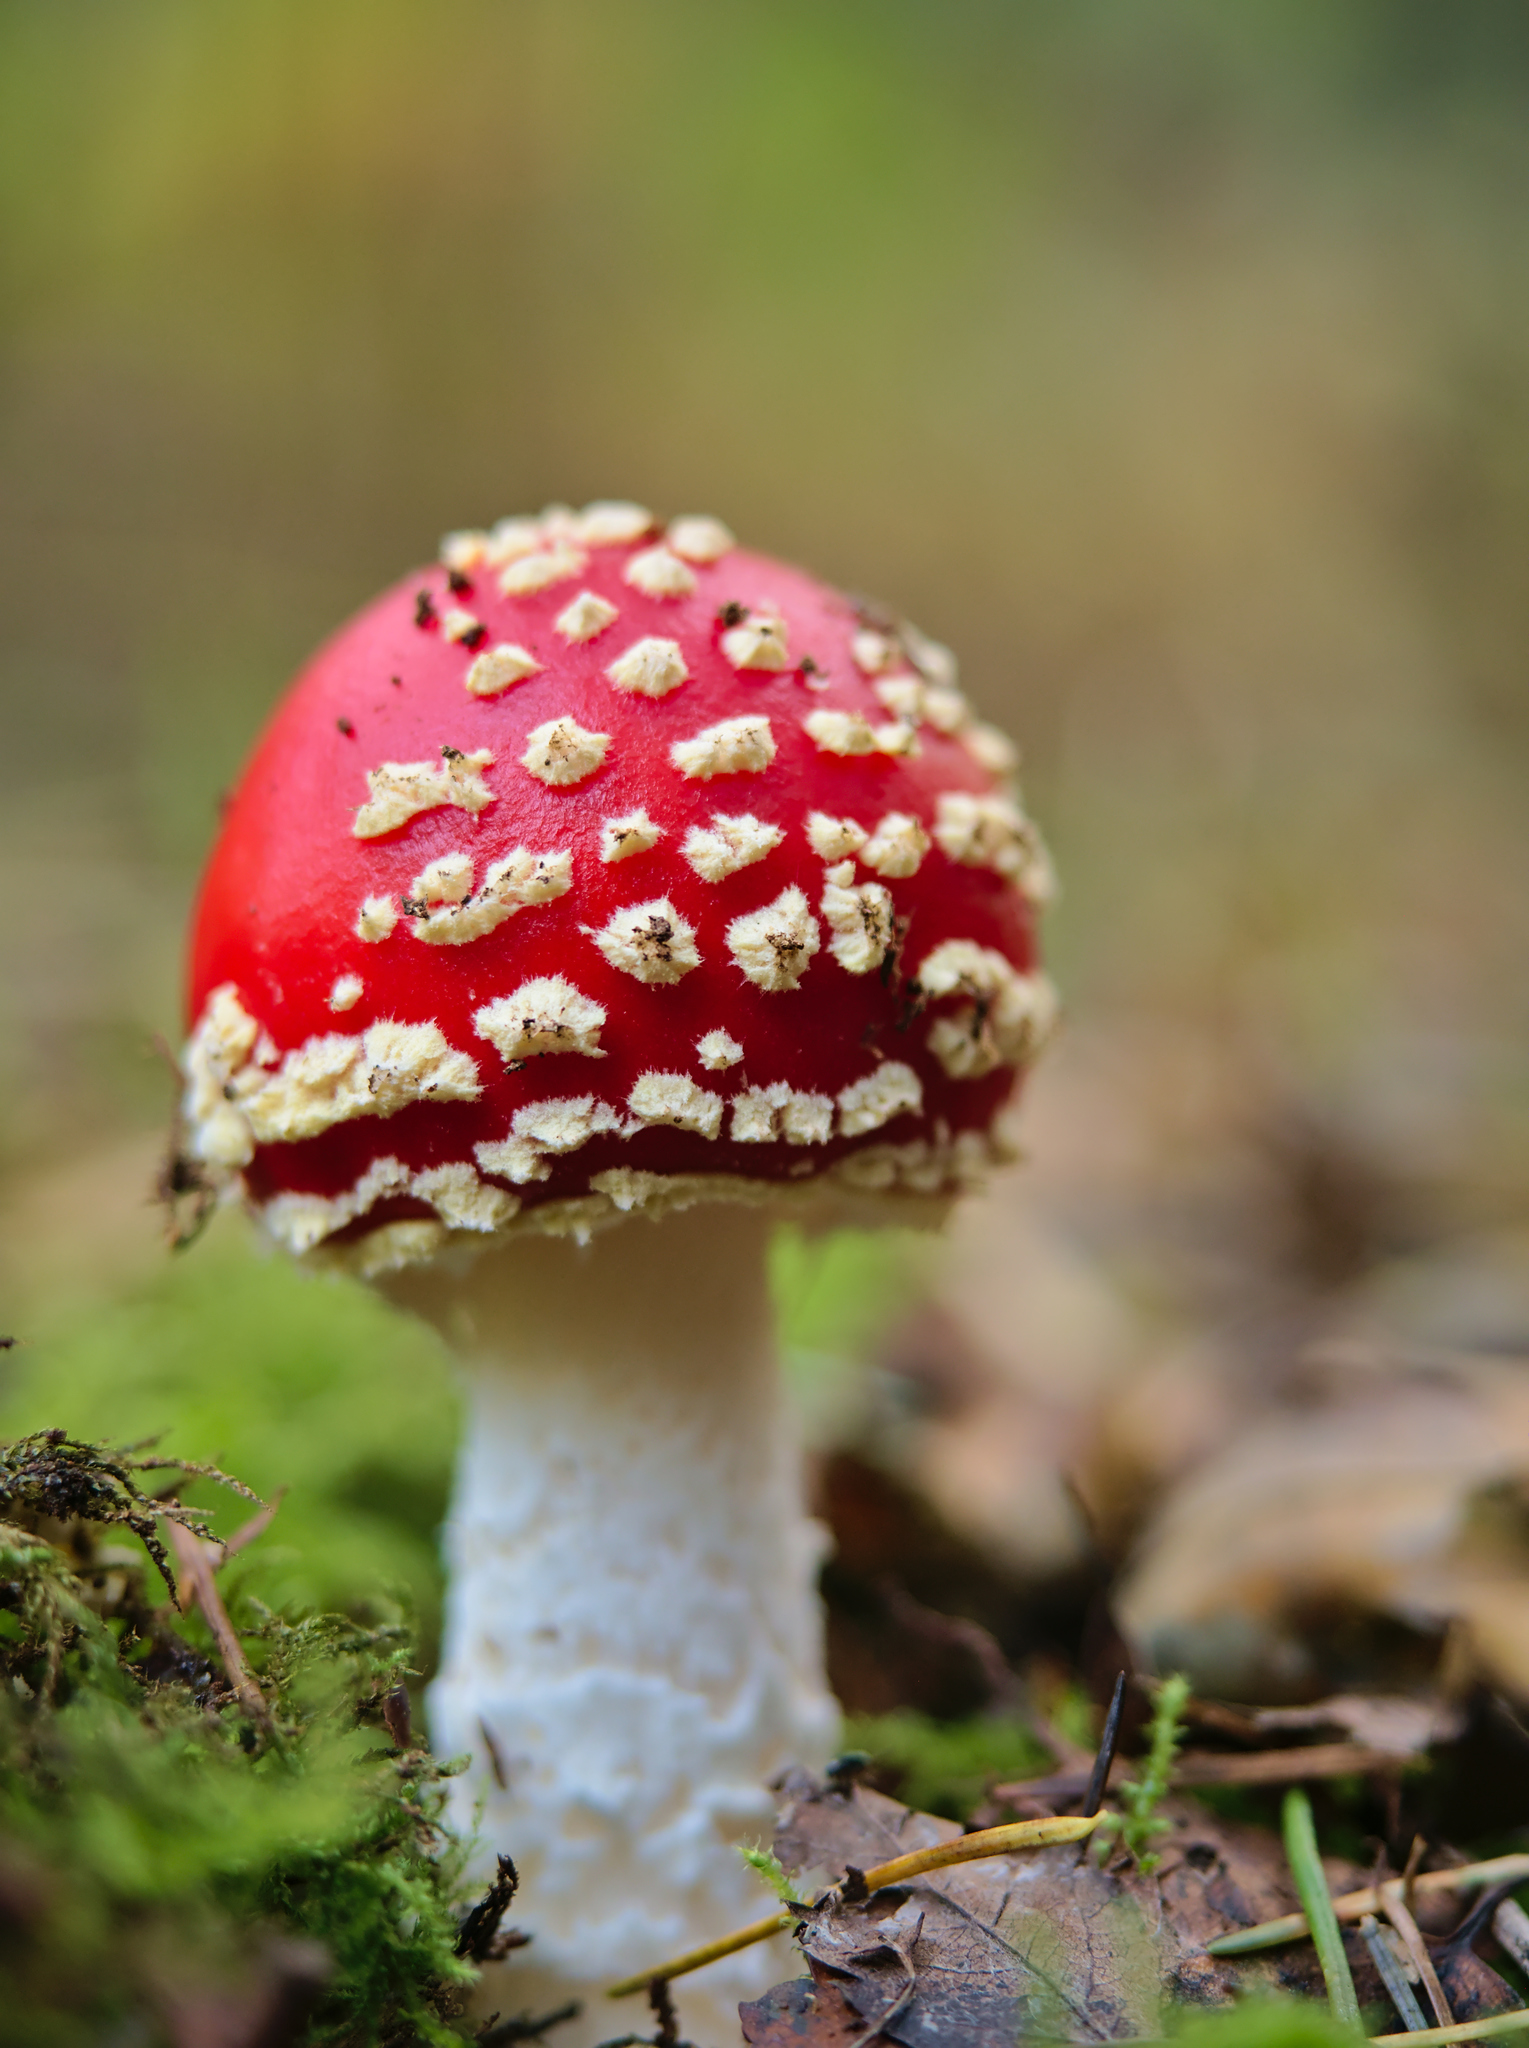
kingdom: Fungi
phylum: Basidiomycota
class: Agaricomycetes
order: Agaricales
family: Amanitaceae
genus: Amanita
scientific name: Amanita muscaria
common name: Fly agaric
